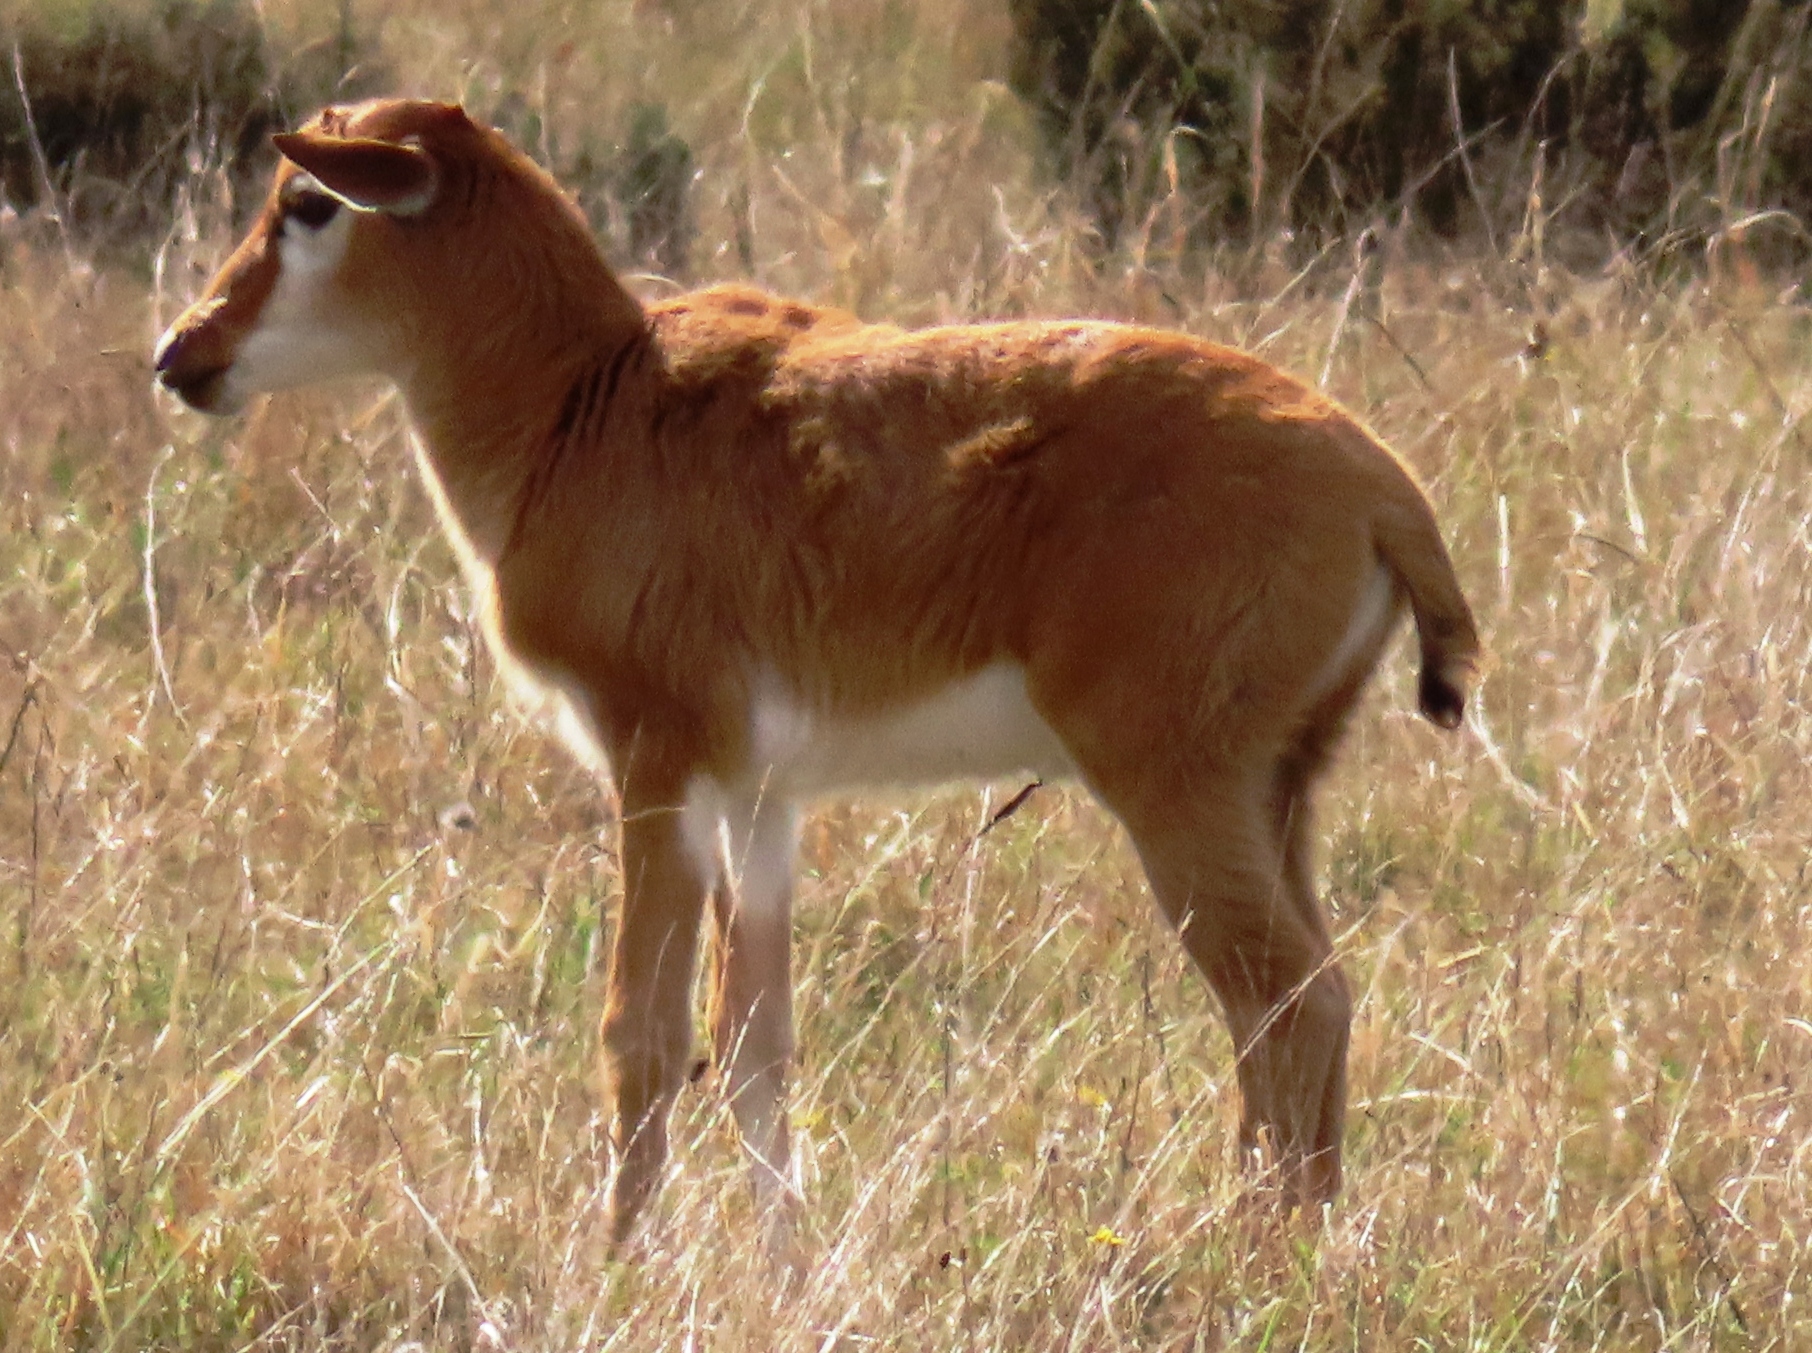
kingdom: Animalia
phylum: Chordata
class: Mammalia
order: Artiodactyla
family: Bovidae
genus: Damaliscus
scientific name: Damaliscus pygargus
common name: Bontebok
